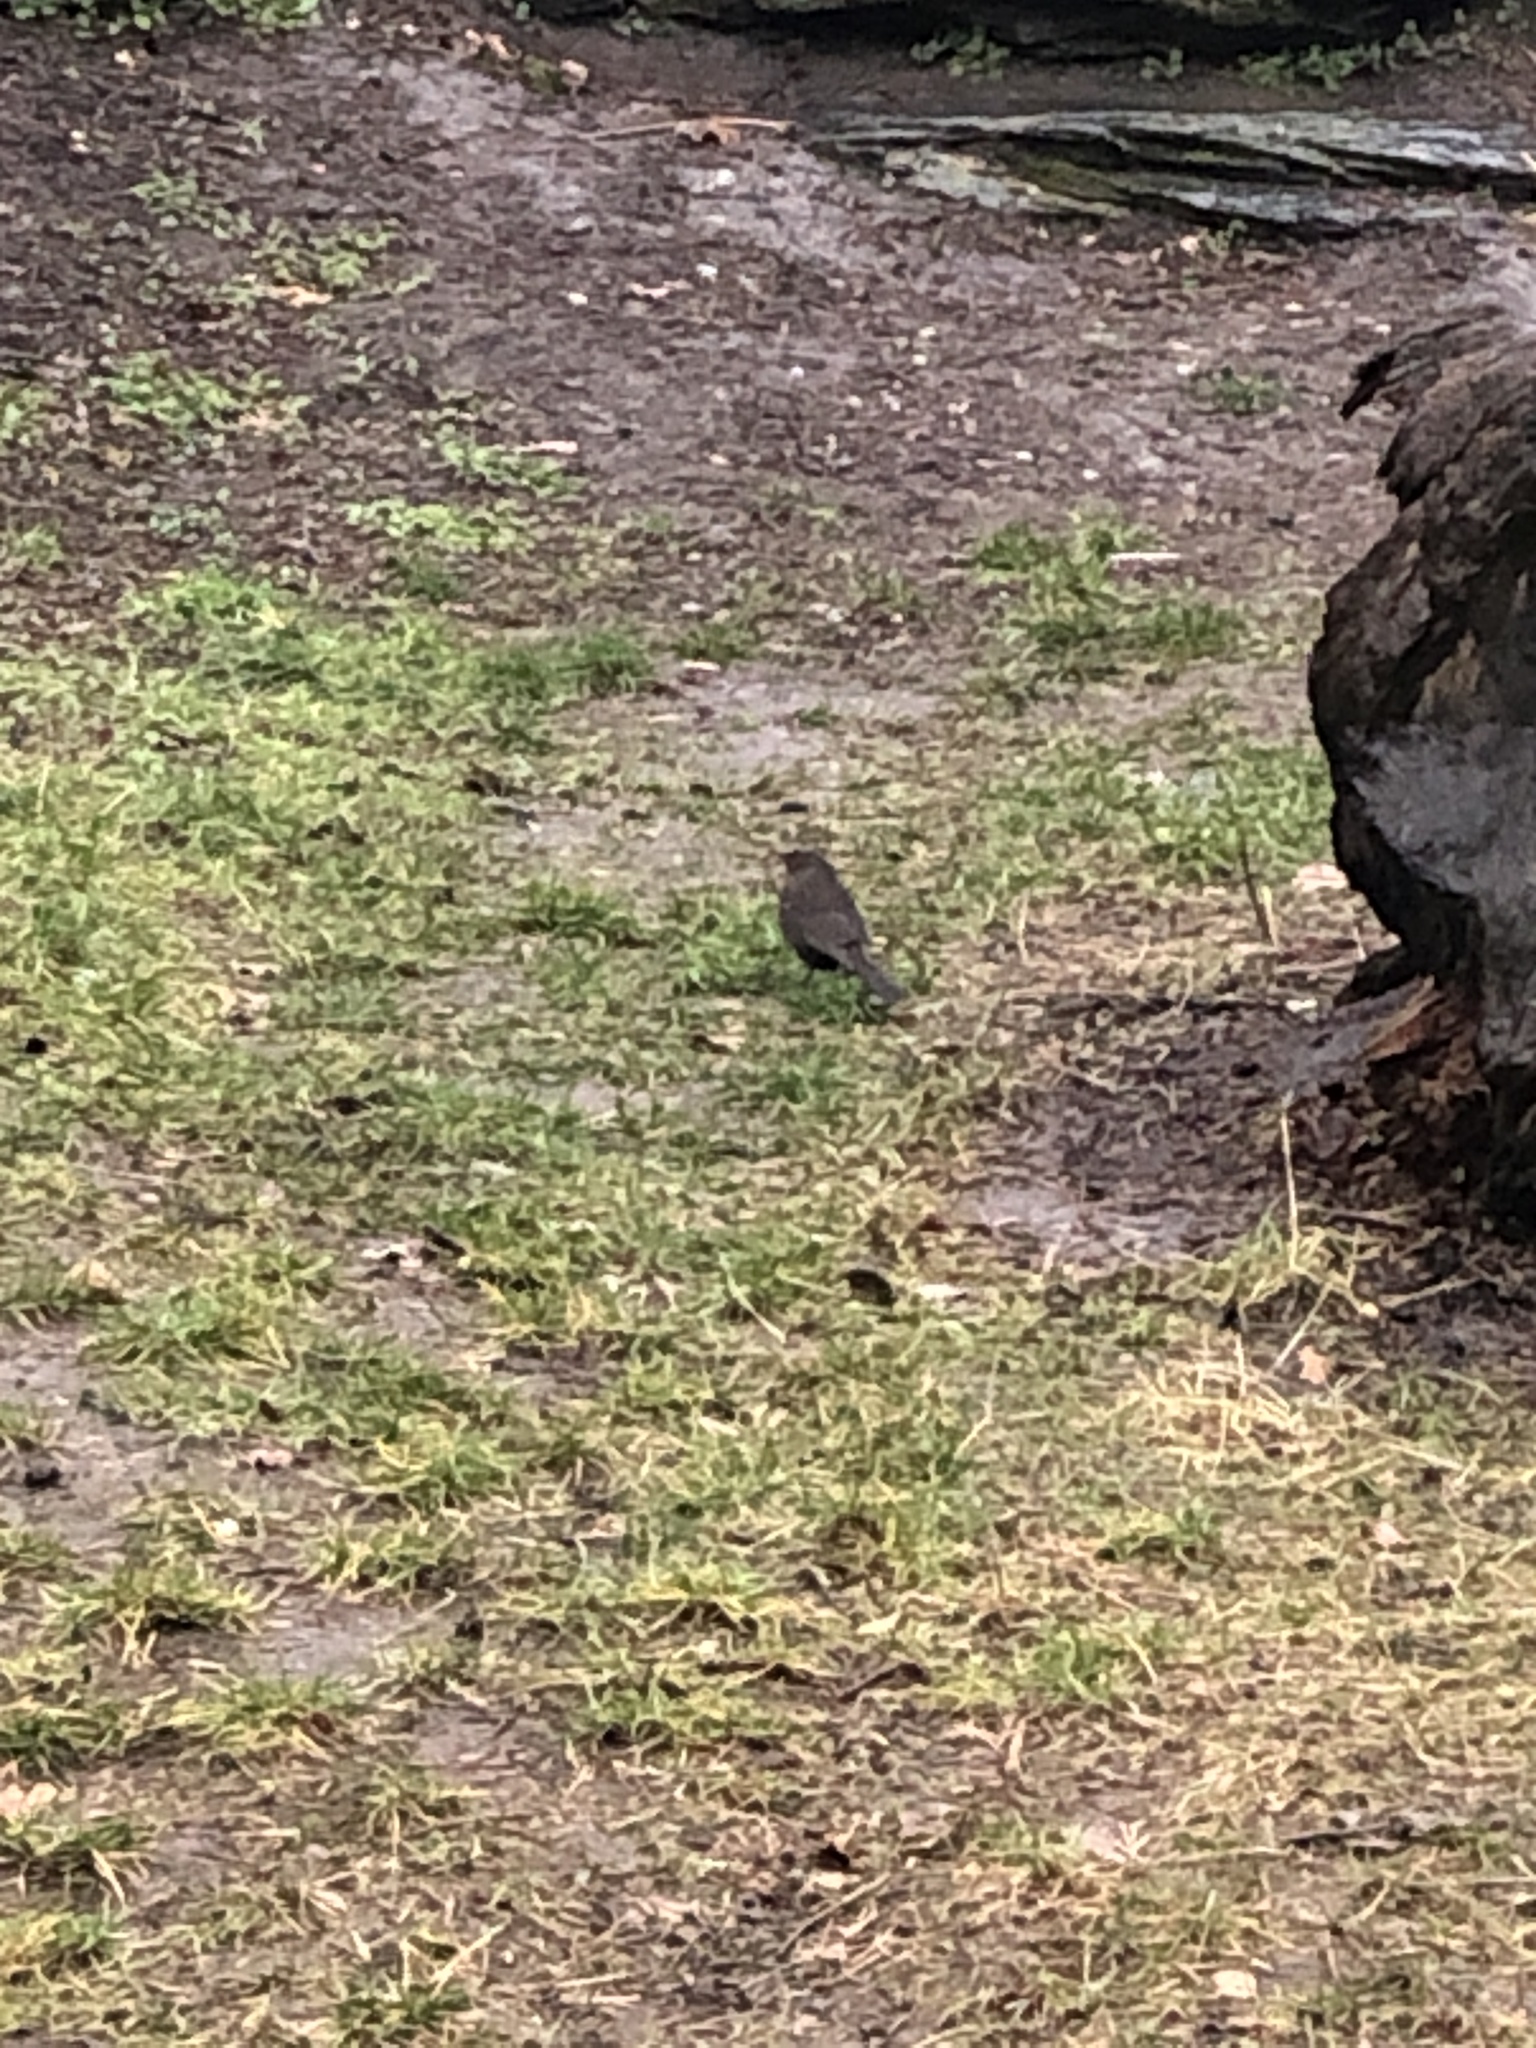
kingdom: Animalia
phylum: Chordata
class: Aves
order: Passeriformes
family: Turdidae
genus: Turdus
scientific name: Turdus merula
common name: Common blackbird
